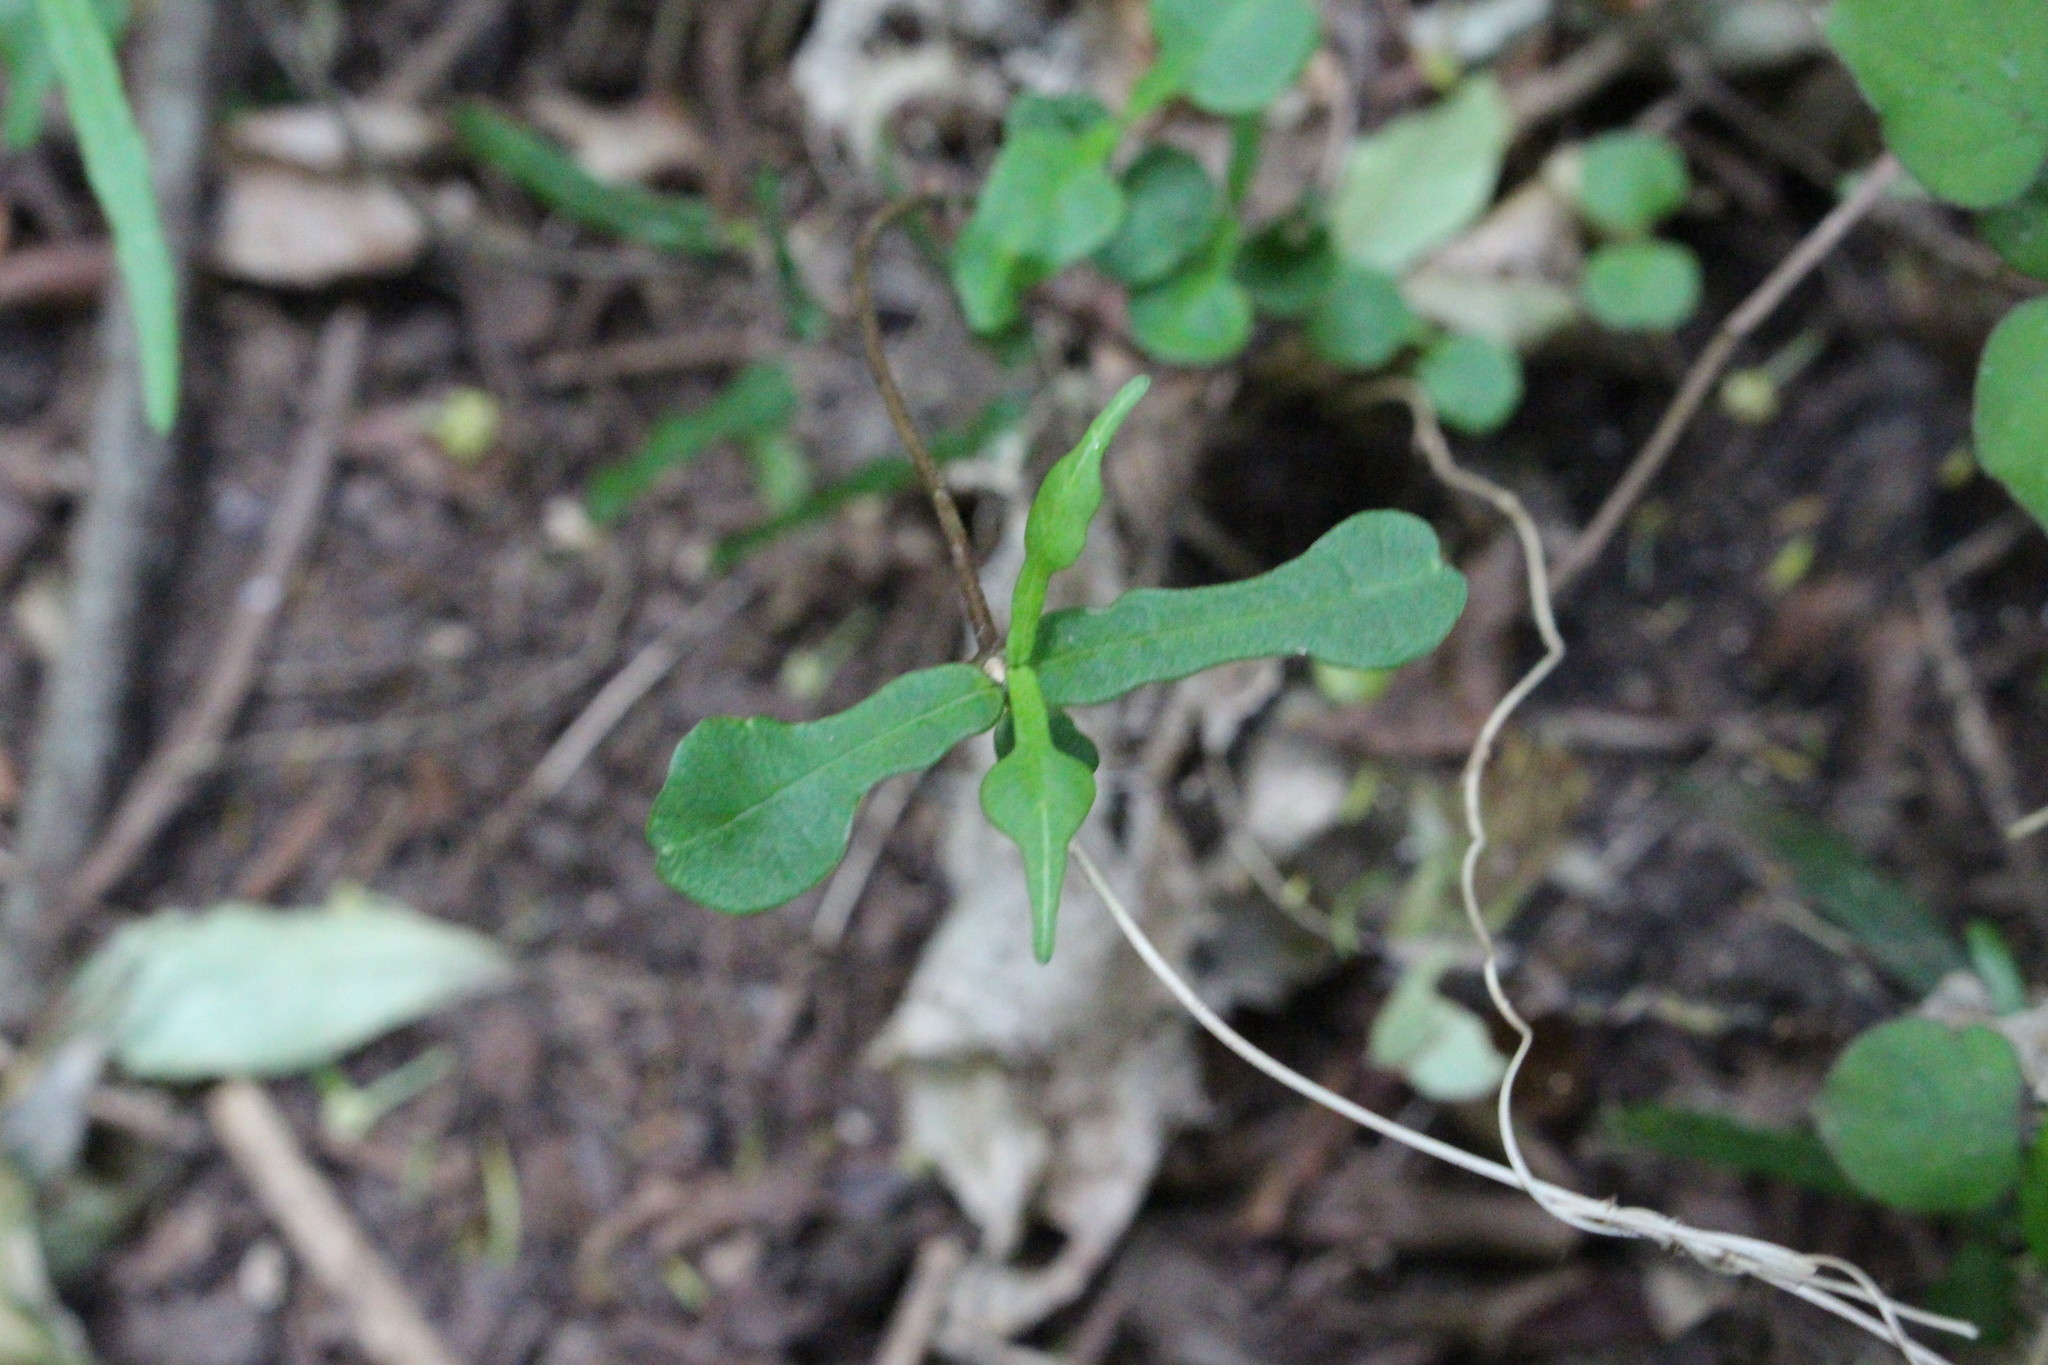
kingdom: Plantae
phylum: Tracheophyta
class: Magnoliopsida
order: Gentianales
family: Apocynaceae
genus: Parsonsia
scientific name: Parsonsia heterophylla
